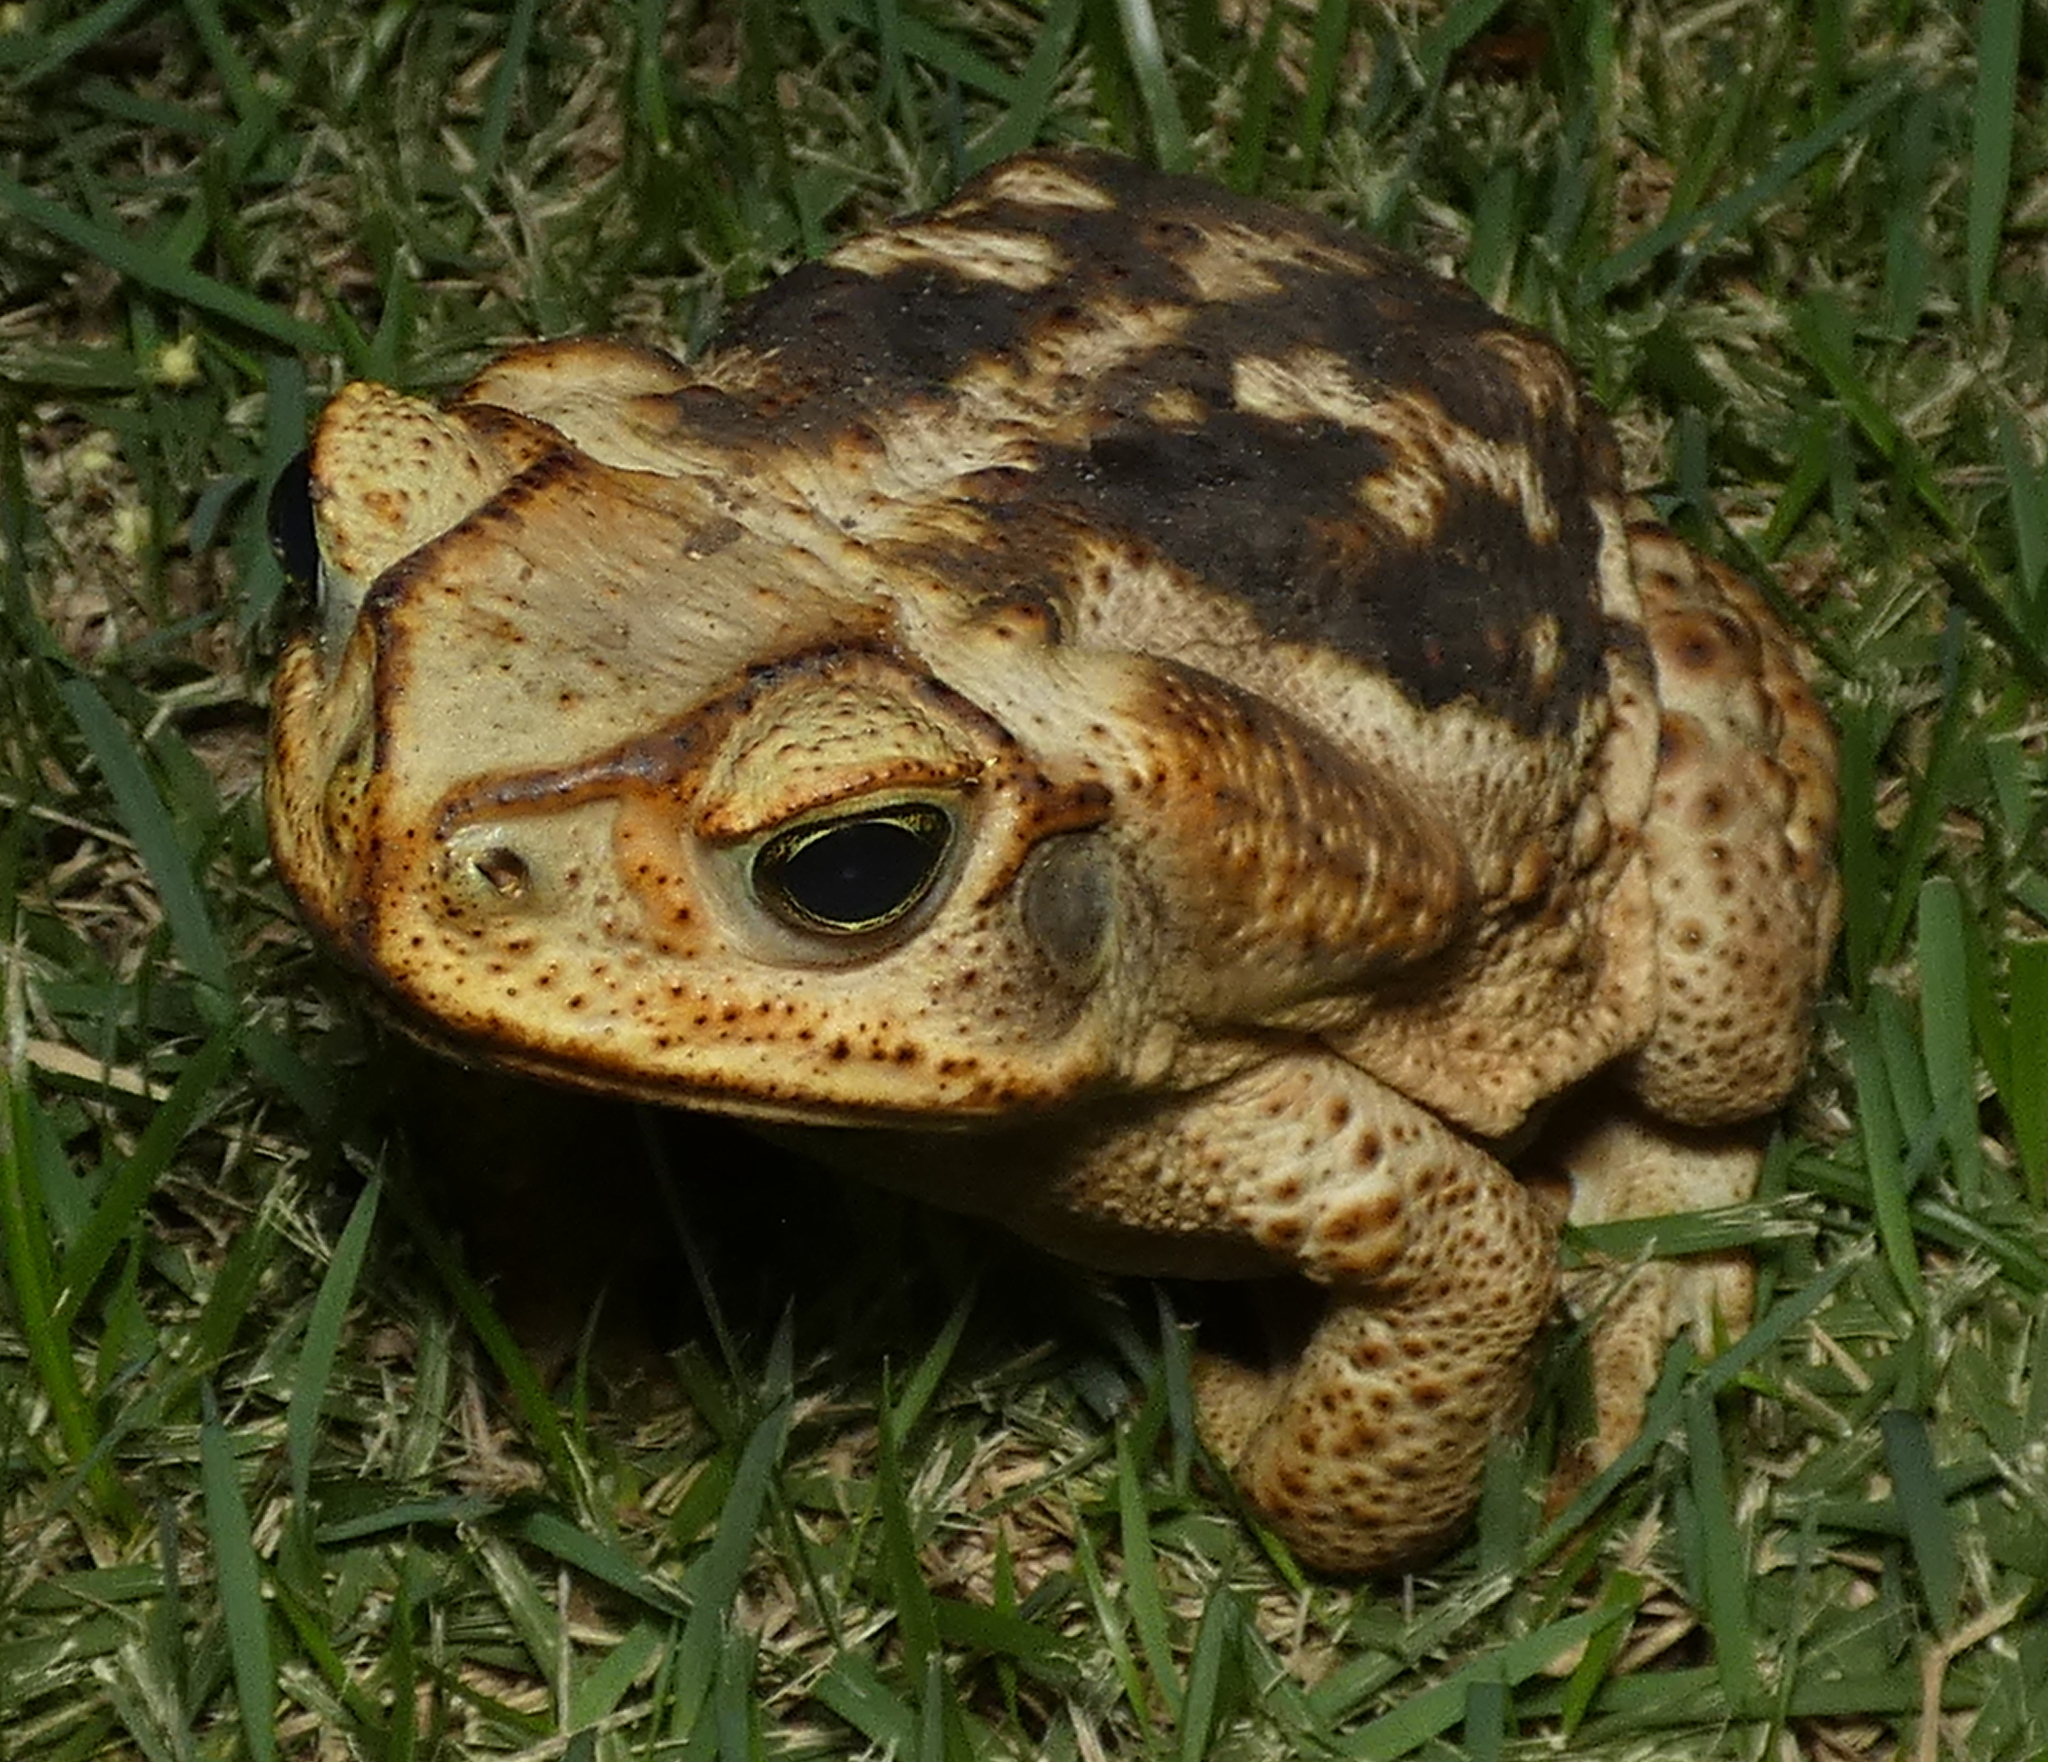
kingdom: Animalia
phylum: Chordata
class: Amphibia
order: Anura
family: Bufonidae
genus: Rhinella
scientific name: Rhinella diptycha
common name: Cope's toad
